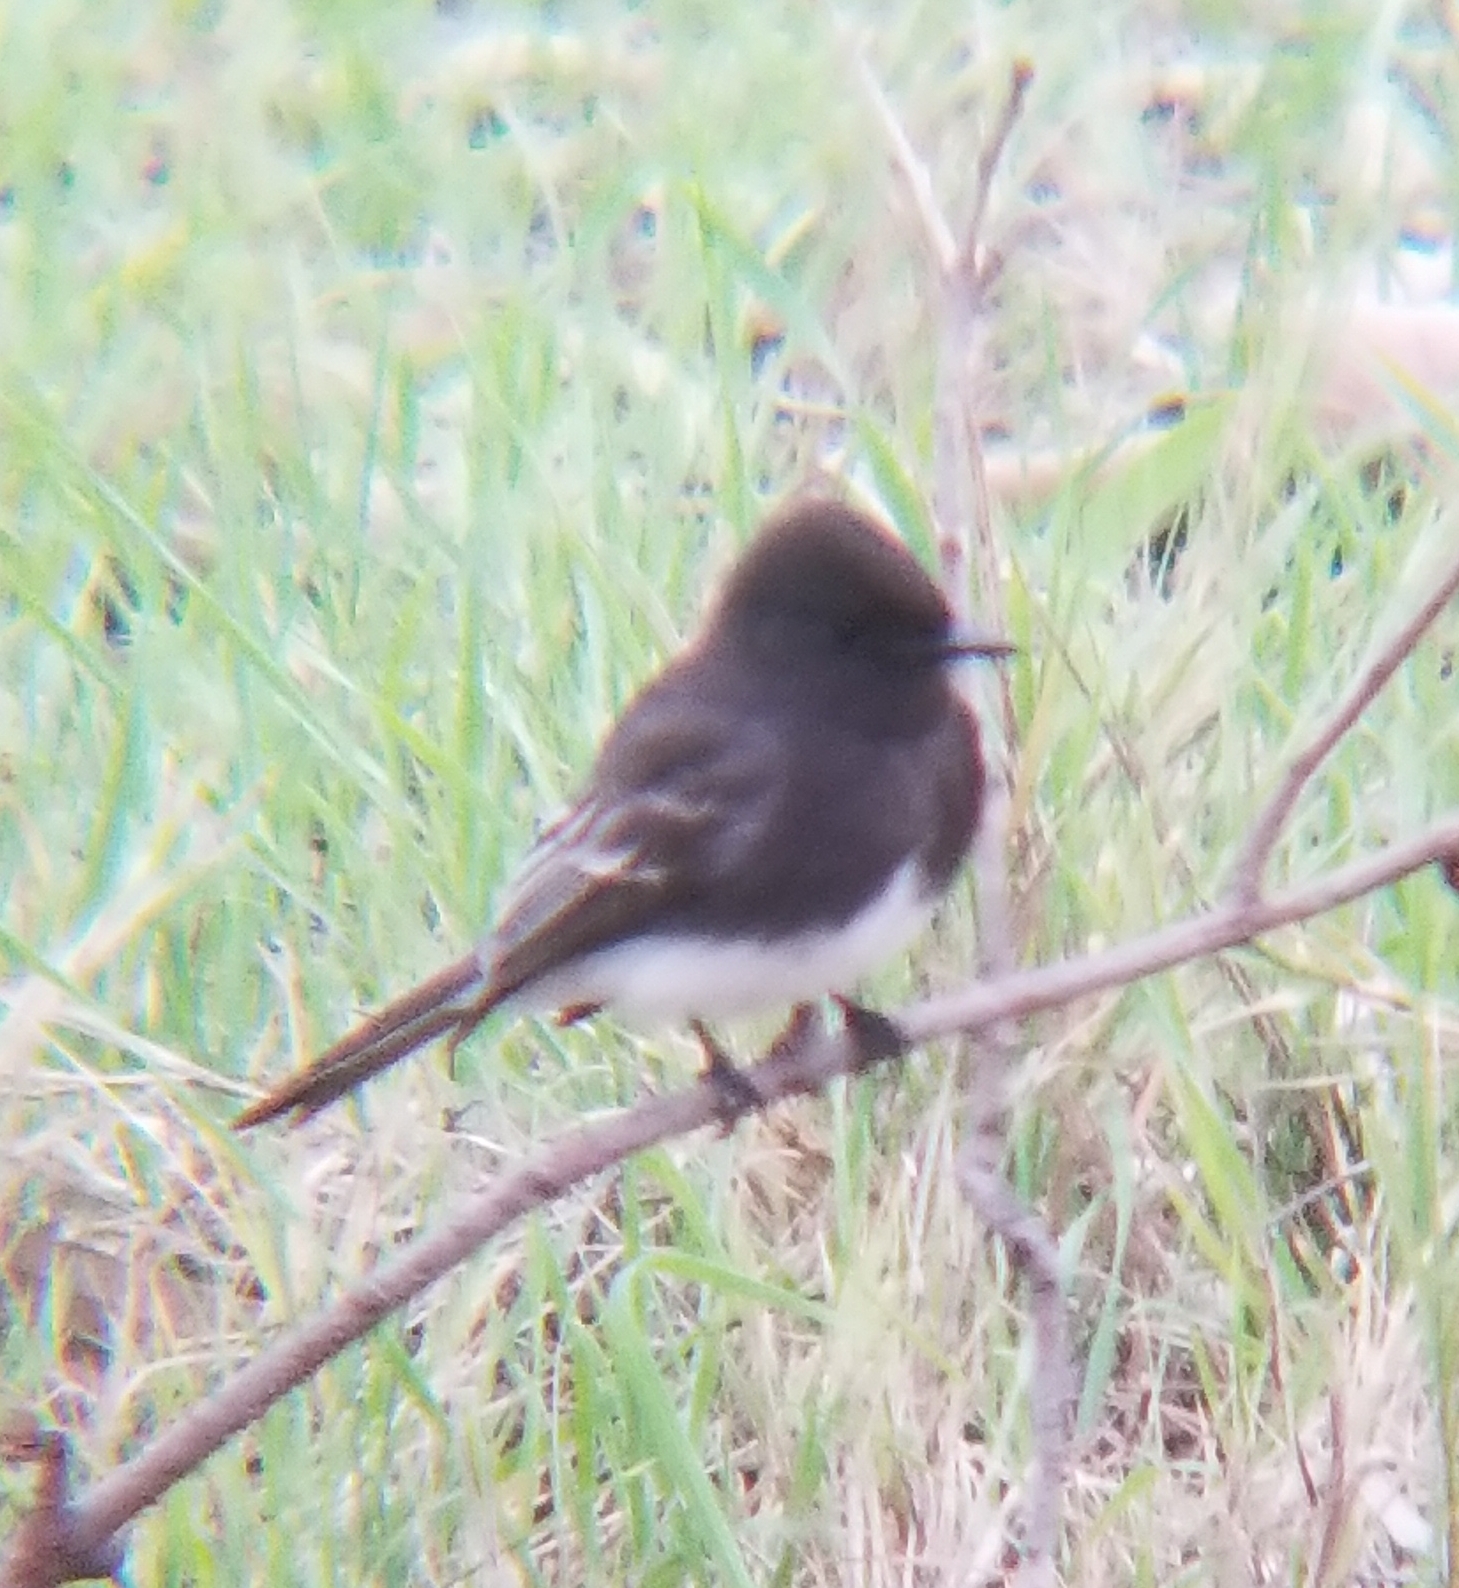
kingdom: Animalia
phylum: Chordata
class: Aves
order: Passeriformes
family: Tyrannidae
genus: Sayornis
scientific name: Sayornis nigricans
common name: Black phoebe
